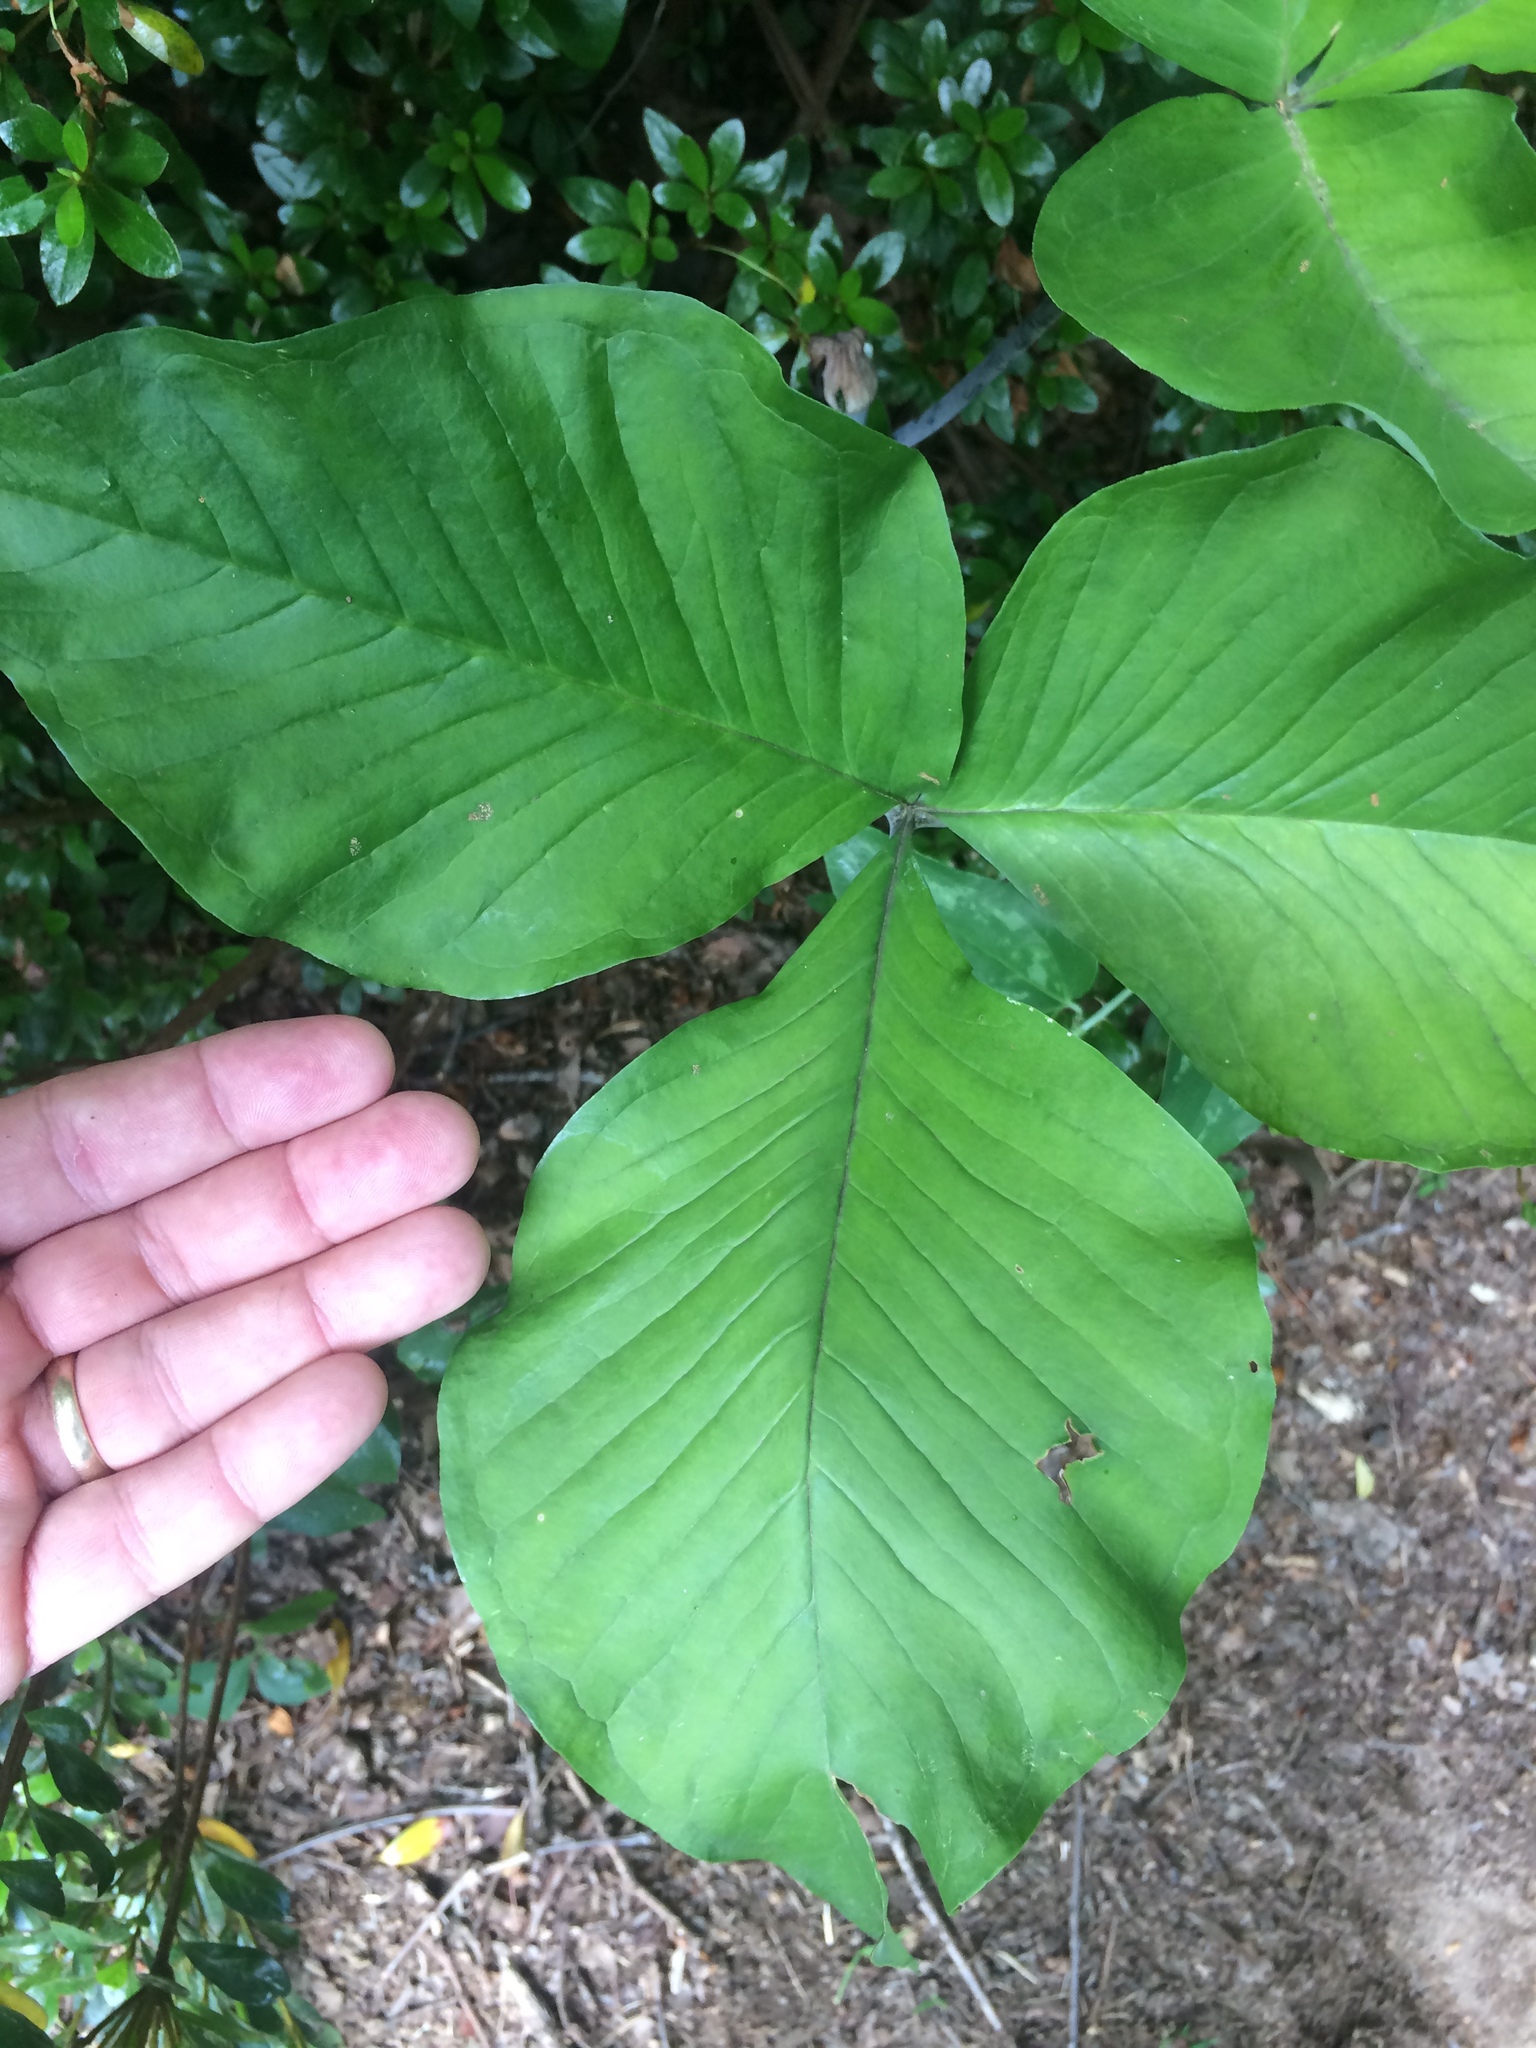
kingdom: Plantae
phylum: Tracheophyta
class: Liliopsida
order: Alismatales
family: Araceae
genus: Arisaema
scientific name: Arisaema triphyllum
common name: Jack-in-the-pulpit
